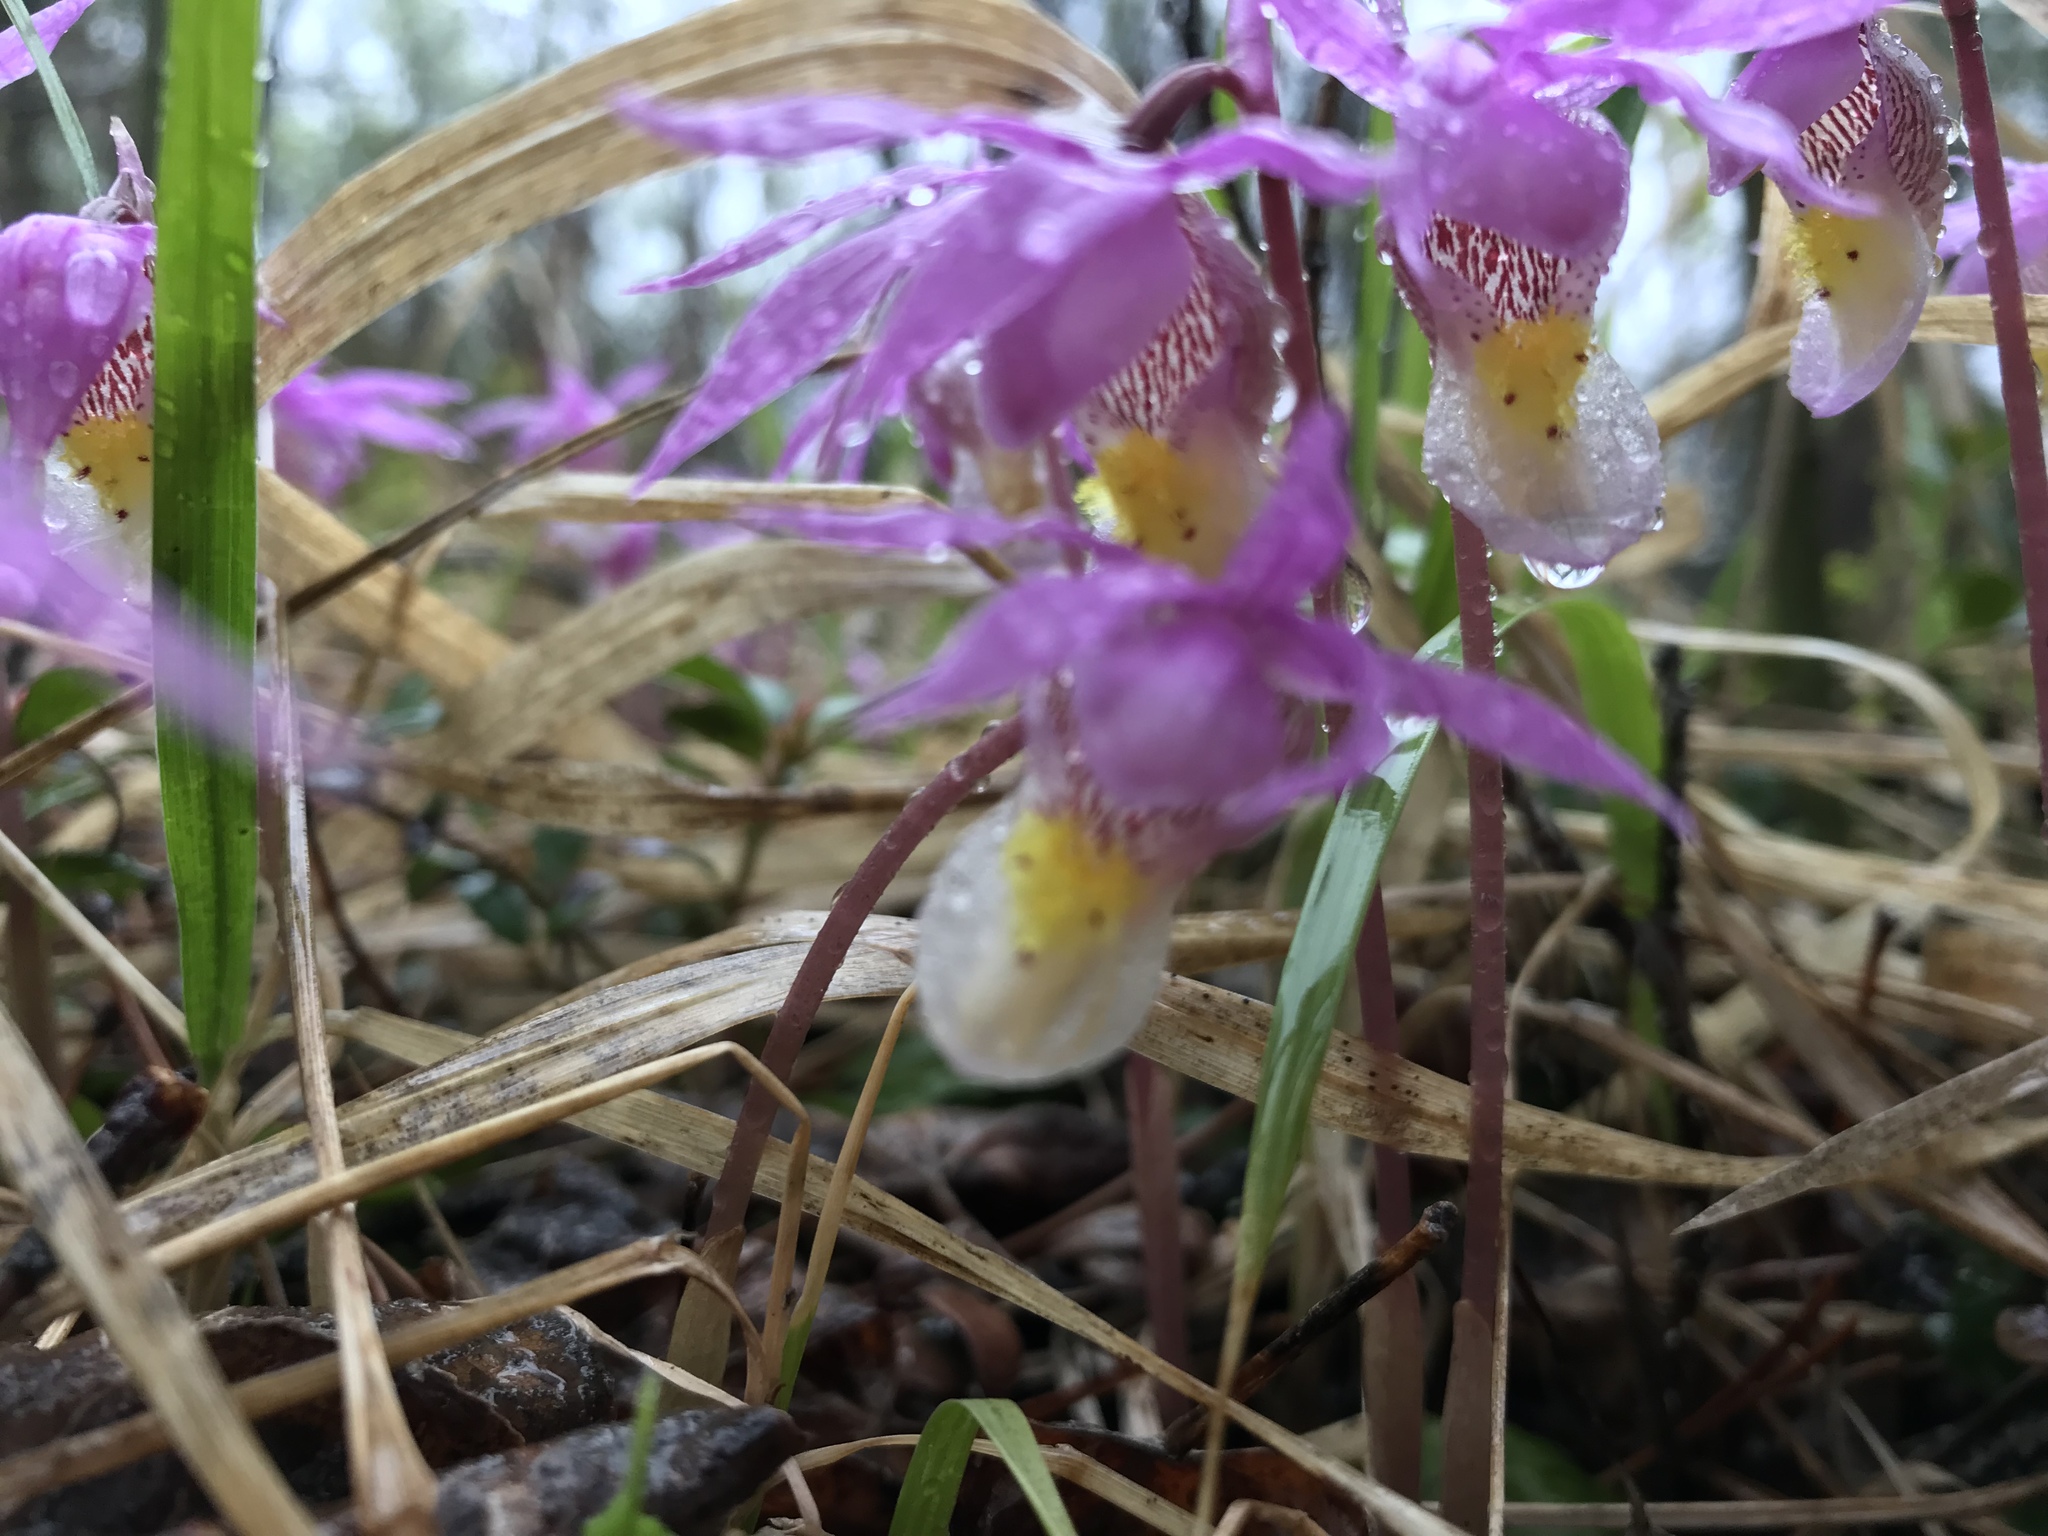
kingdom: Plantae
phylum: Tracheophyta
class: Liliopsida
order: Asparagales
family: Orchidaceae
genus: Calypso
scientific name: Calypso bulbosa
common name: Calypso
